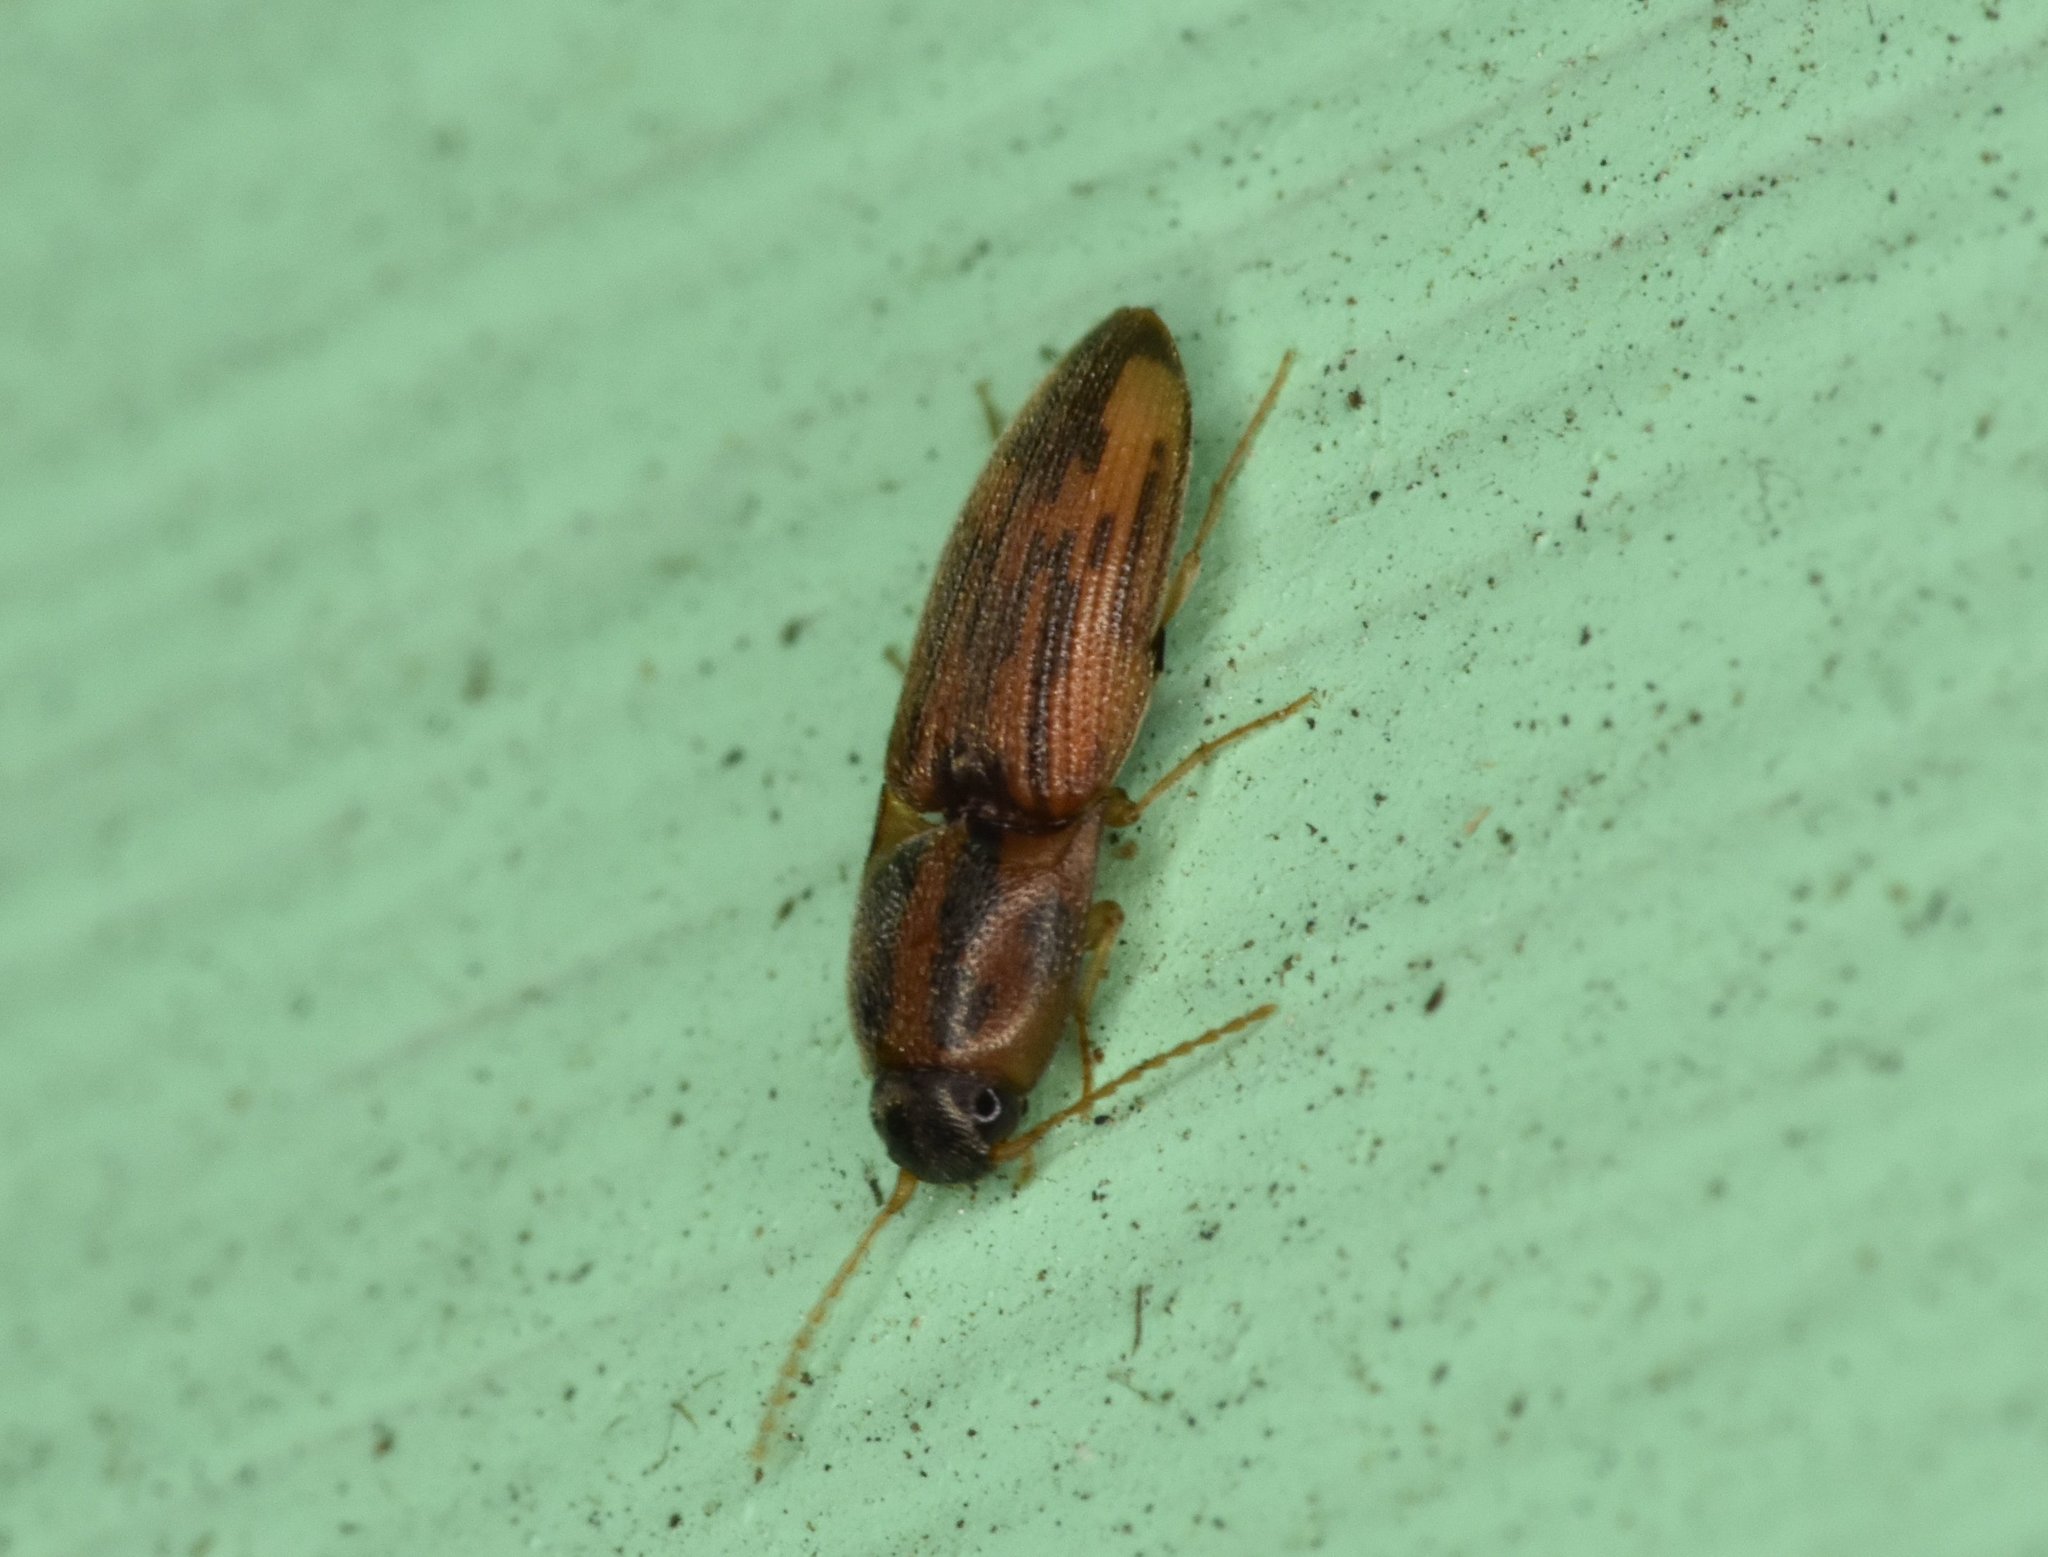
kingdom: Animalia
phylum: Arthropoda
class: Insecta
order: Coleoptera
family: Elateridae
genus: Monocrepidius
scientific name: Monocrepidius
